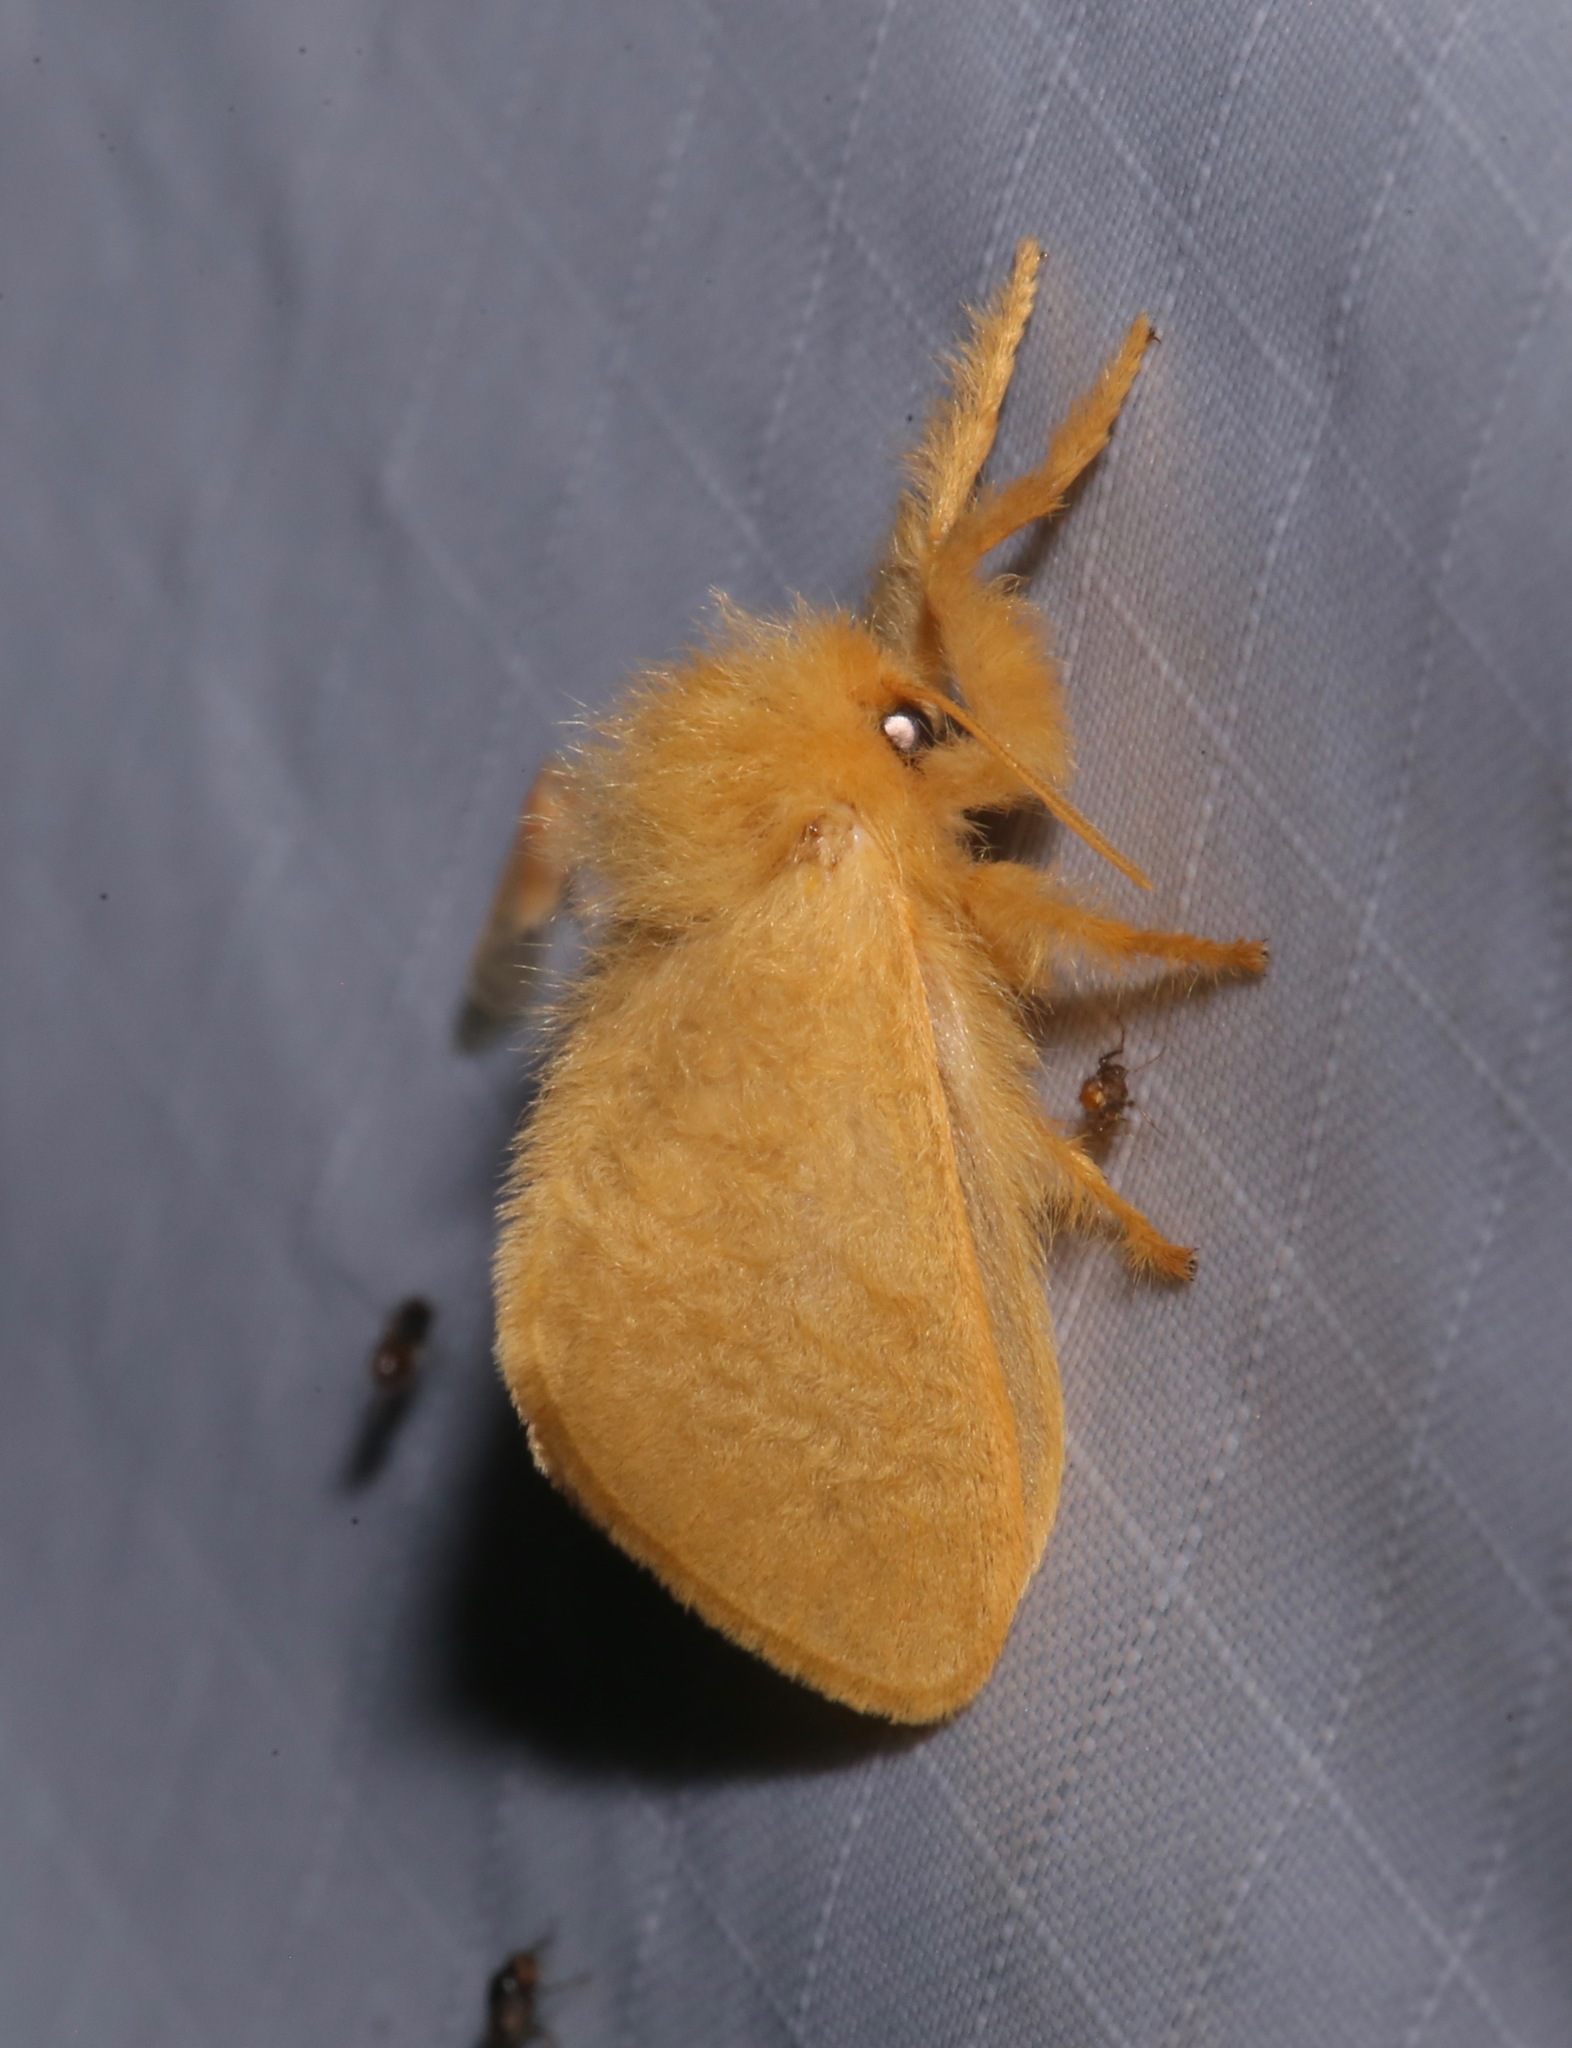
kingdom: Animalia
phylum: Arthropoda
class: Insecta
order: Lepidoptera
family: Megalopygidae
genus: Megalopyge
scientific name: Megalopyge pixidifera
